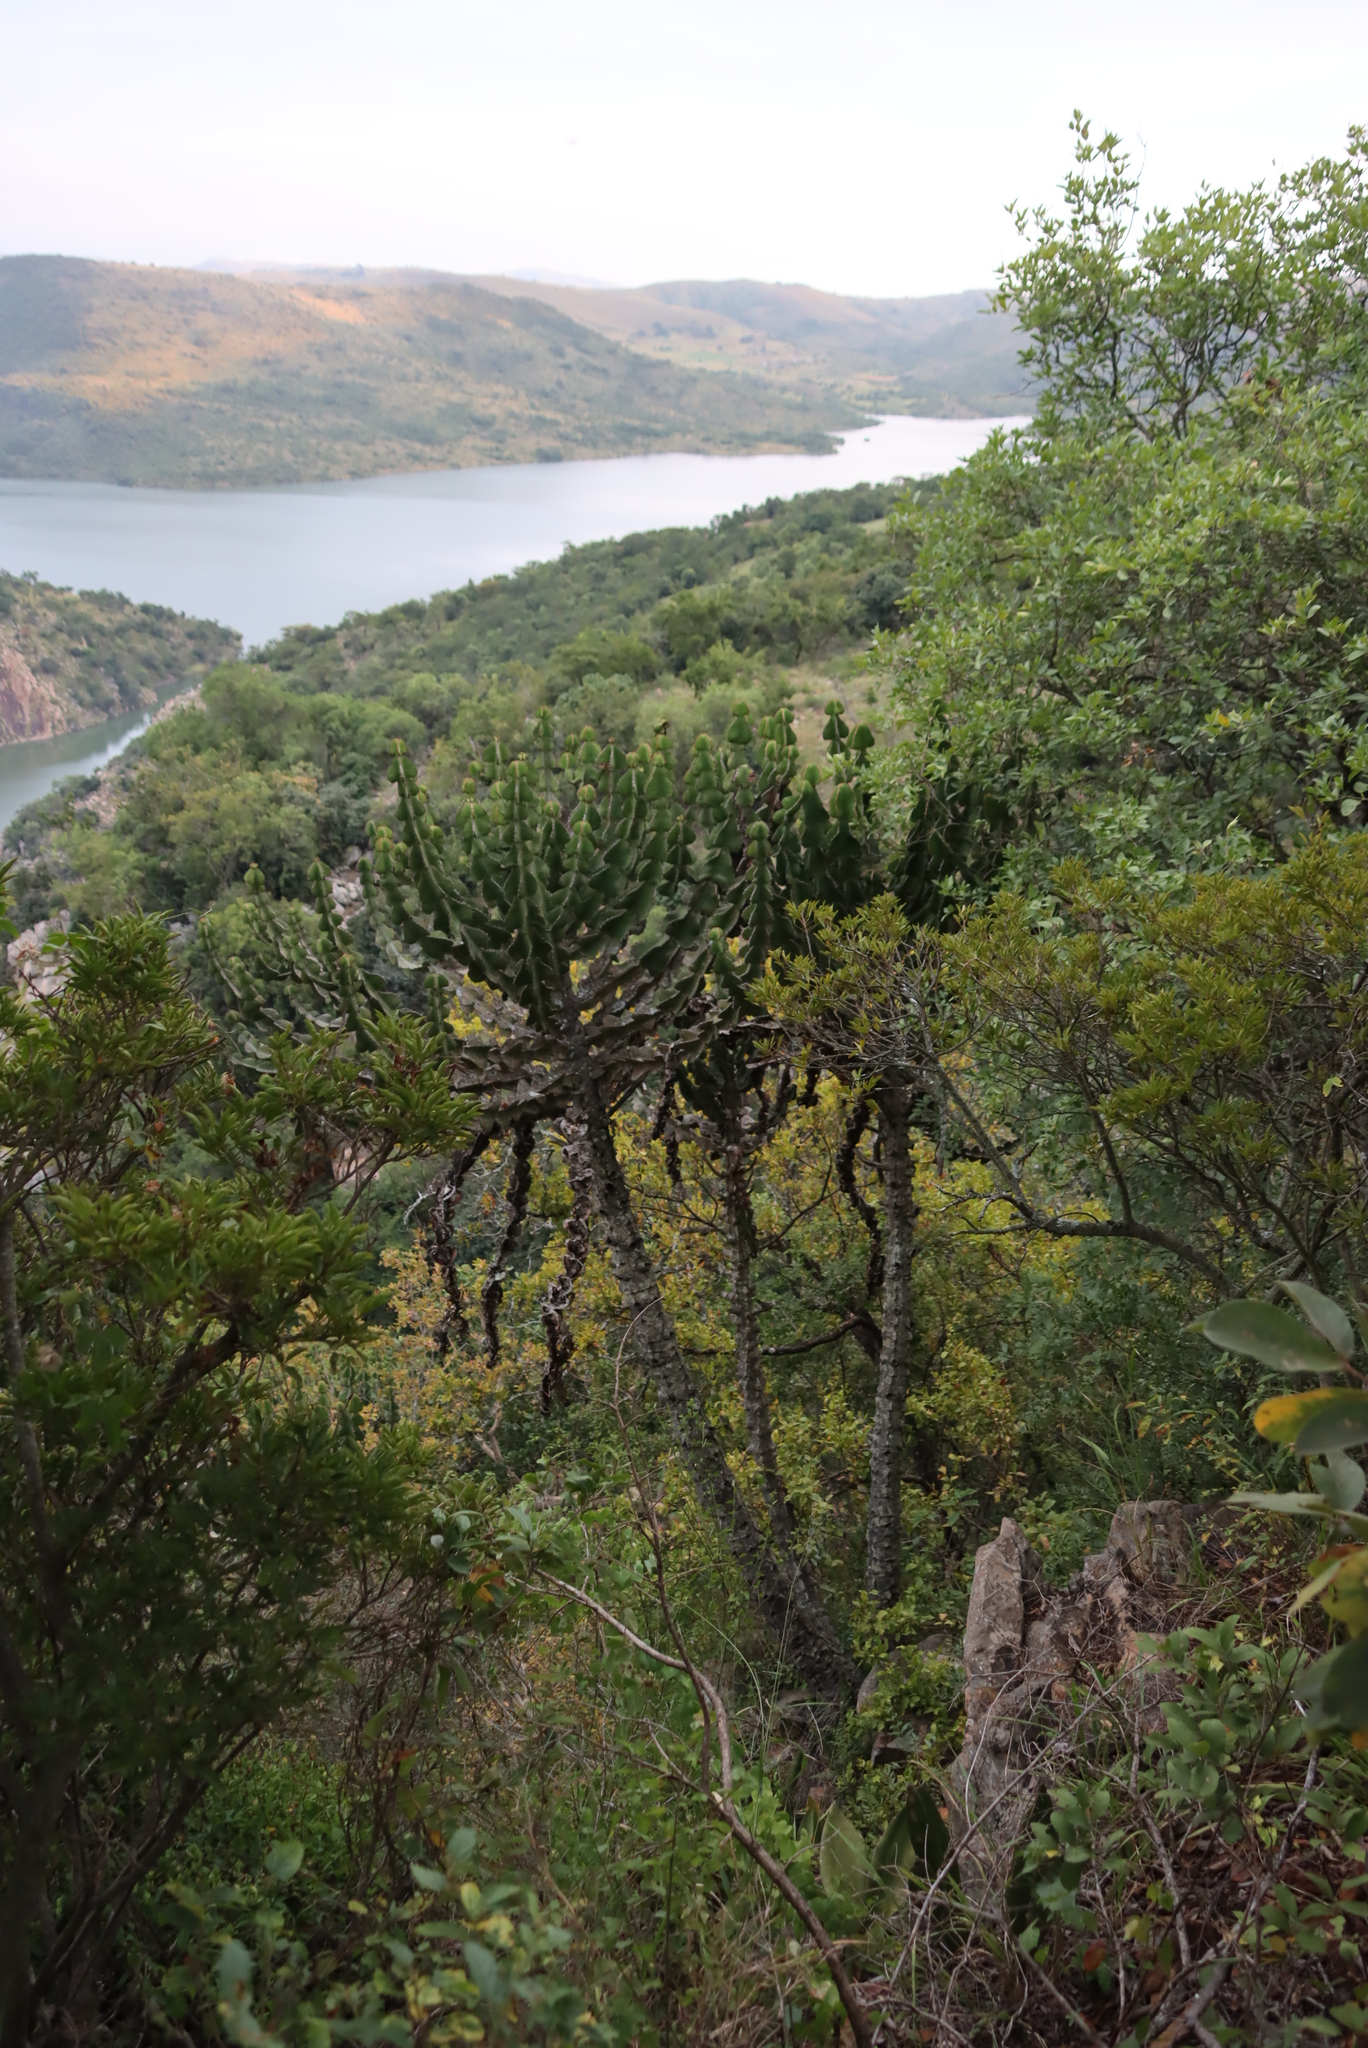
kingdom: Plantae
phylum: Tracheophyta
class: Magnoliopsida
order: Malpighiales
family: Euphorbiaceae
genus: Euphorbia
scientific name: Euphorbia cooperi
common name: Candelabra tree
